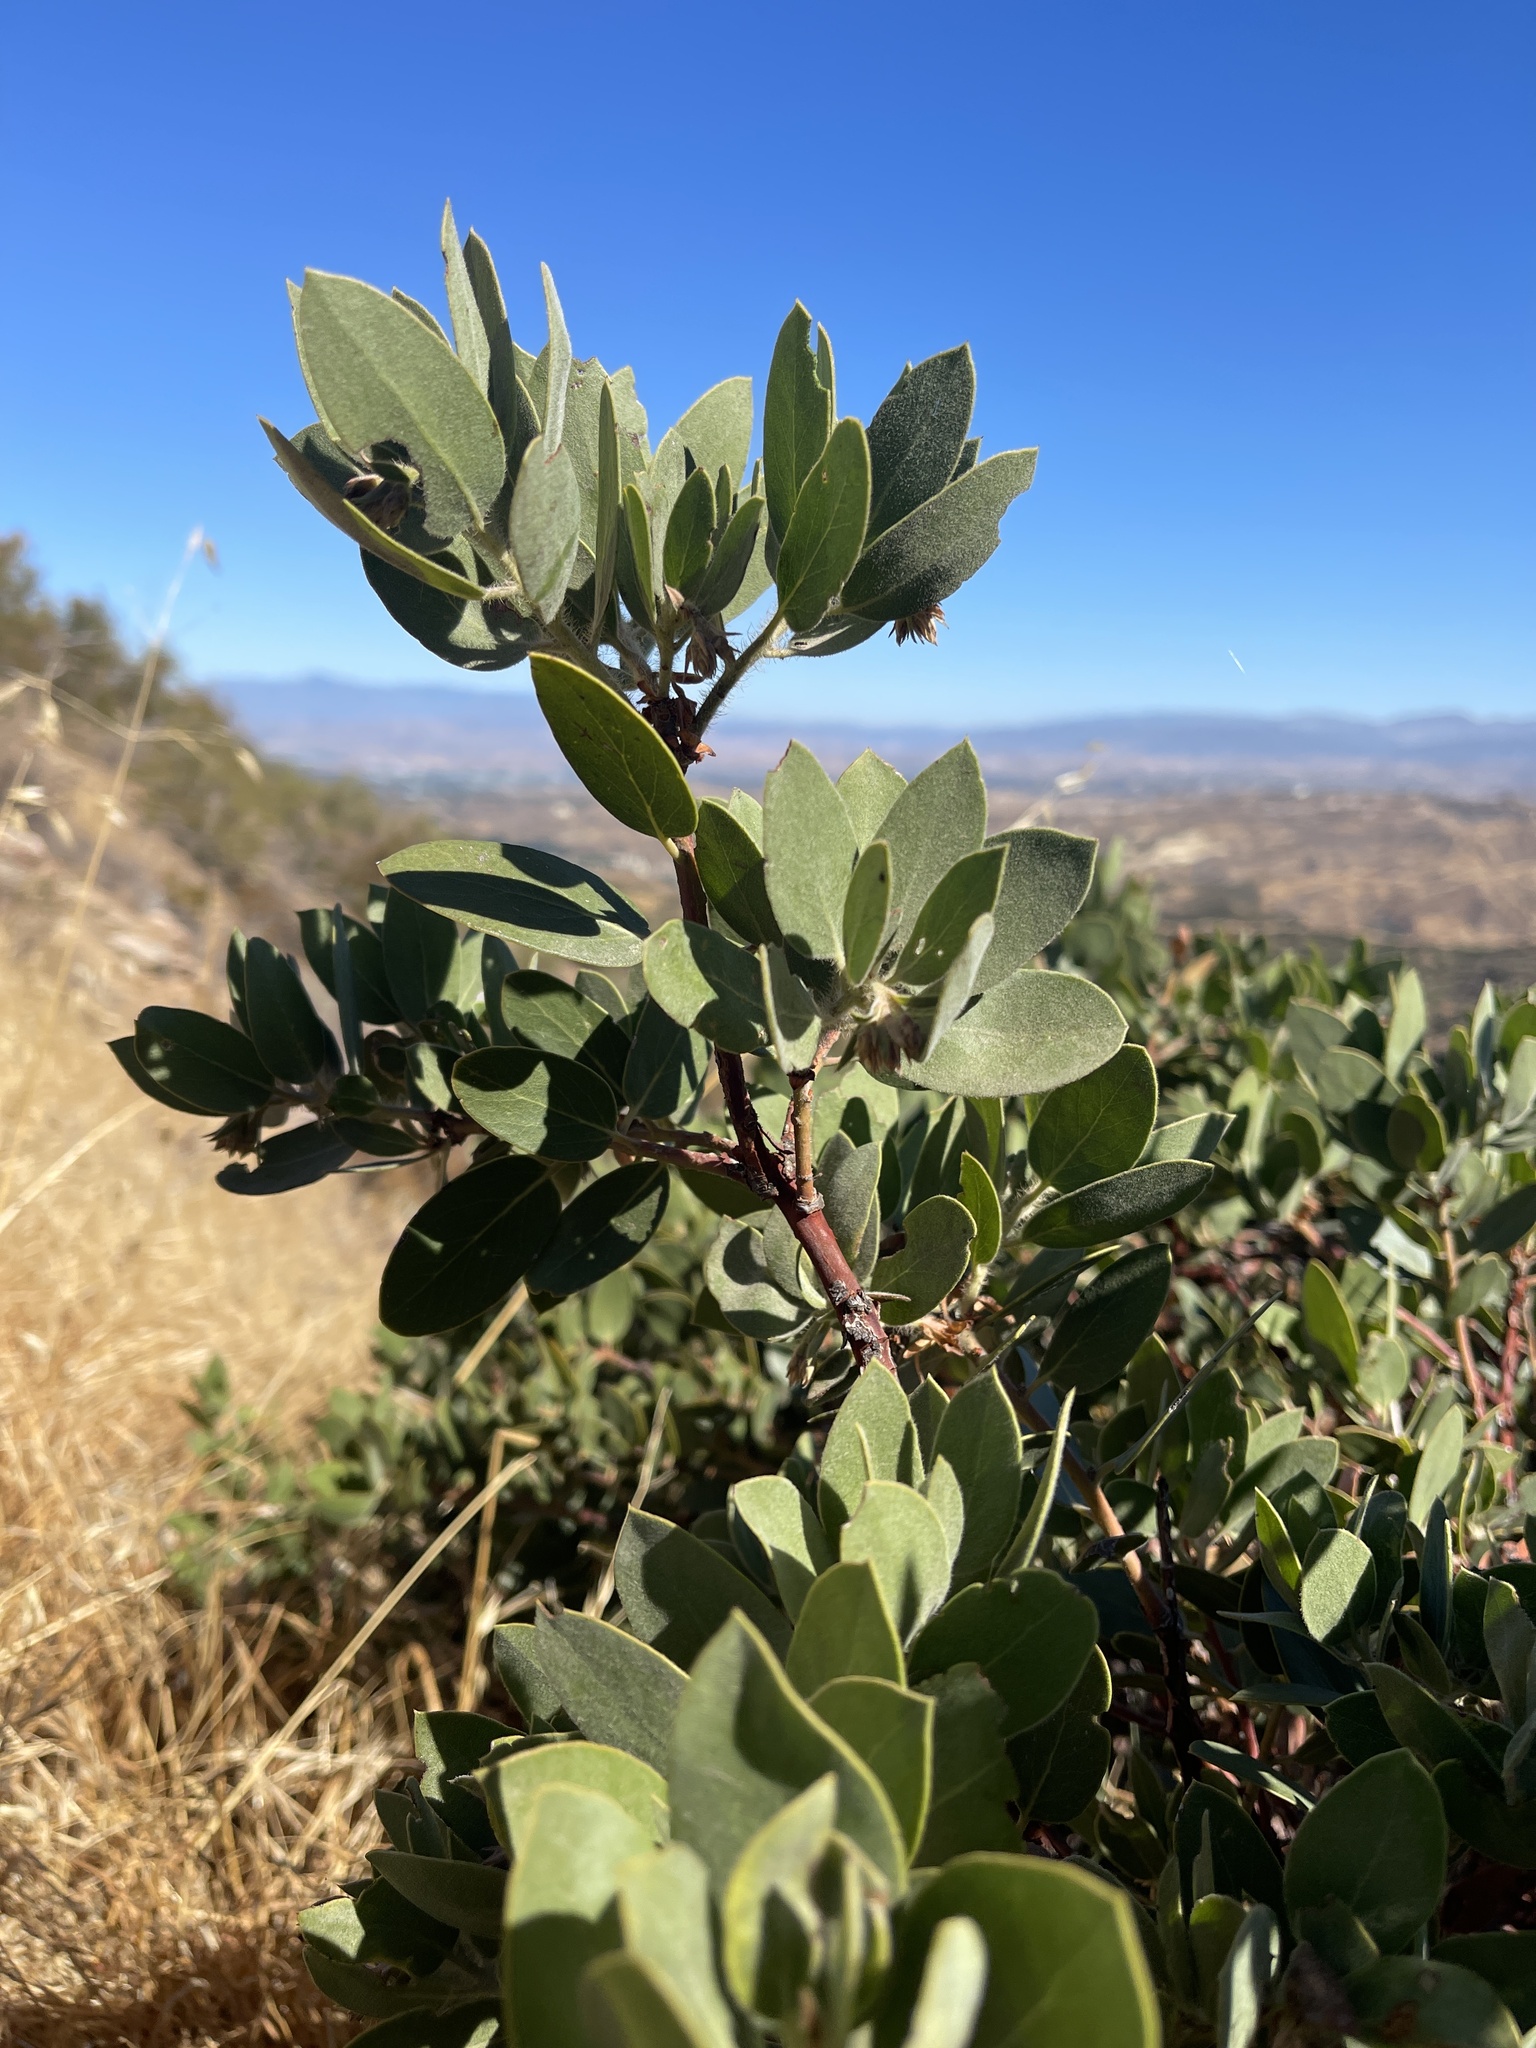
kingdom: Plantae
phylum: Tracheophyta
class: Magnoliopsida
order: Ericales
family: Ericaceae
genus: Arctostaphylos
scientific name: Arctostaphylos glauca
